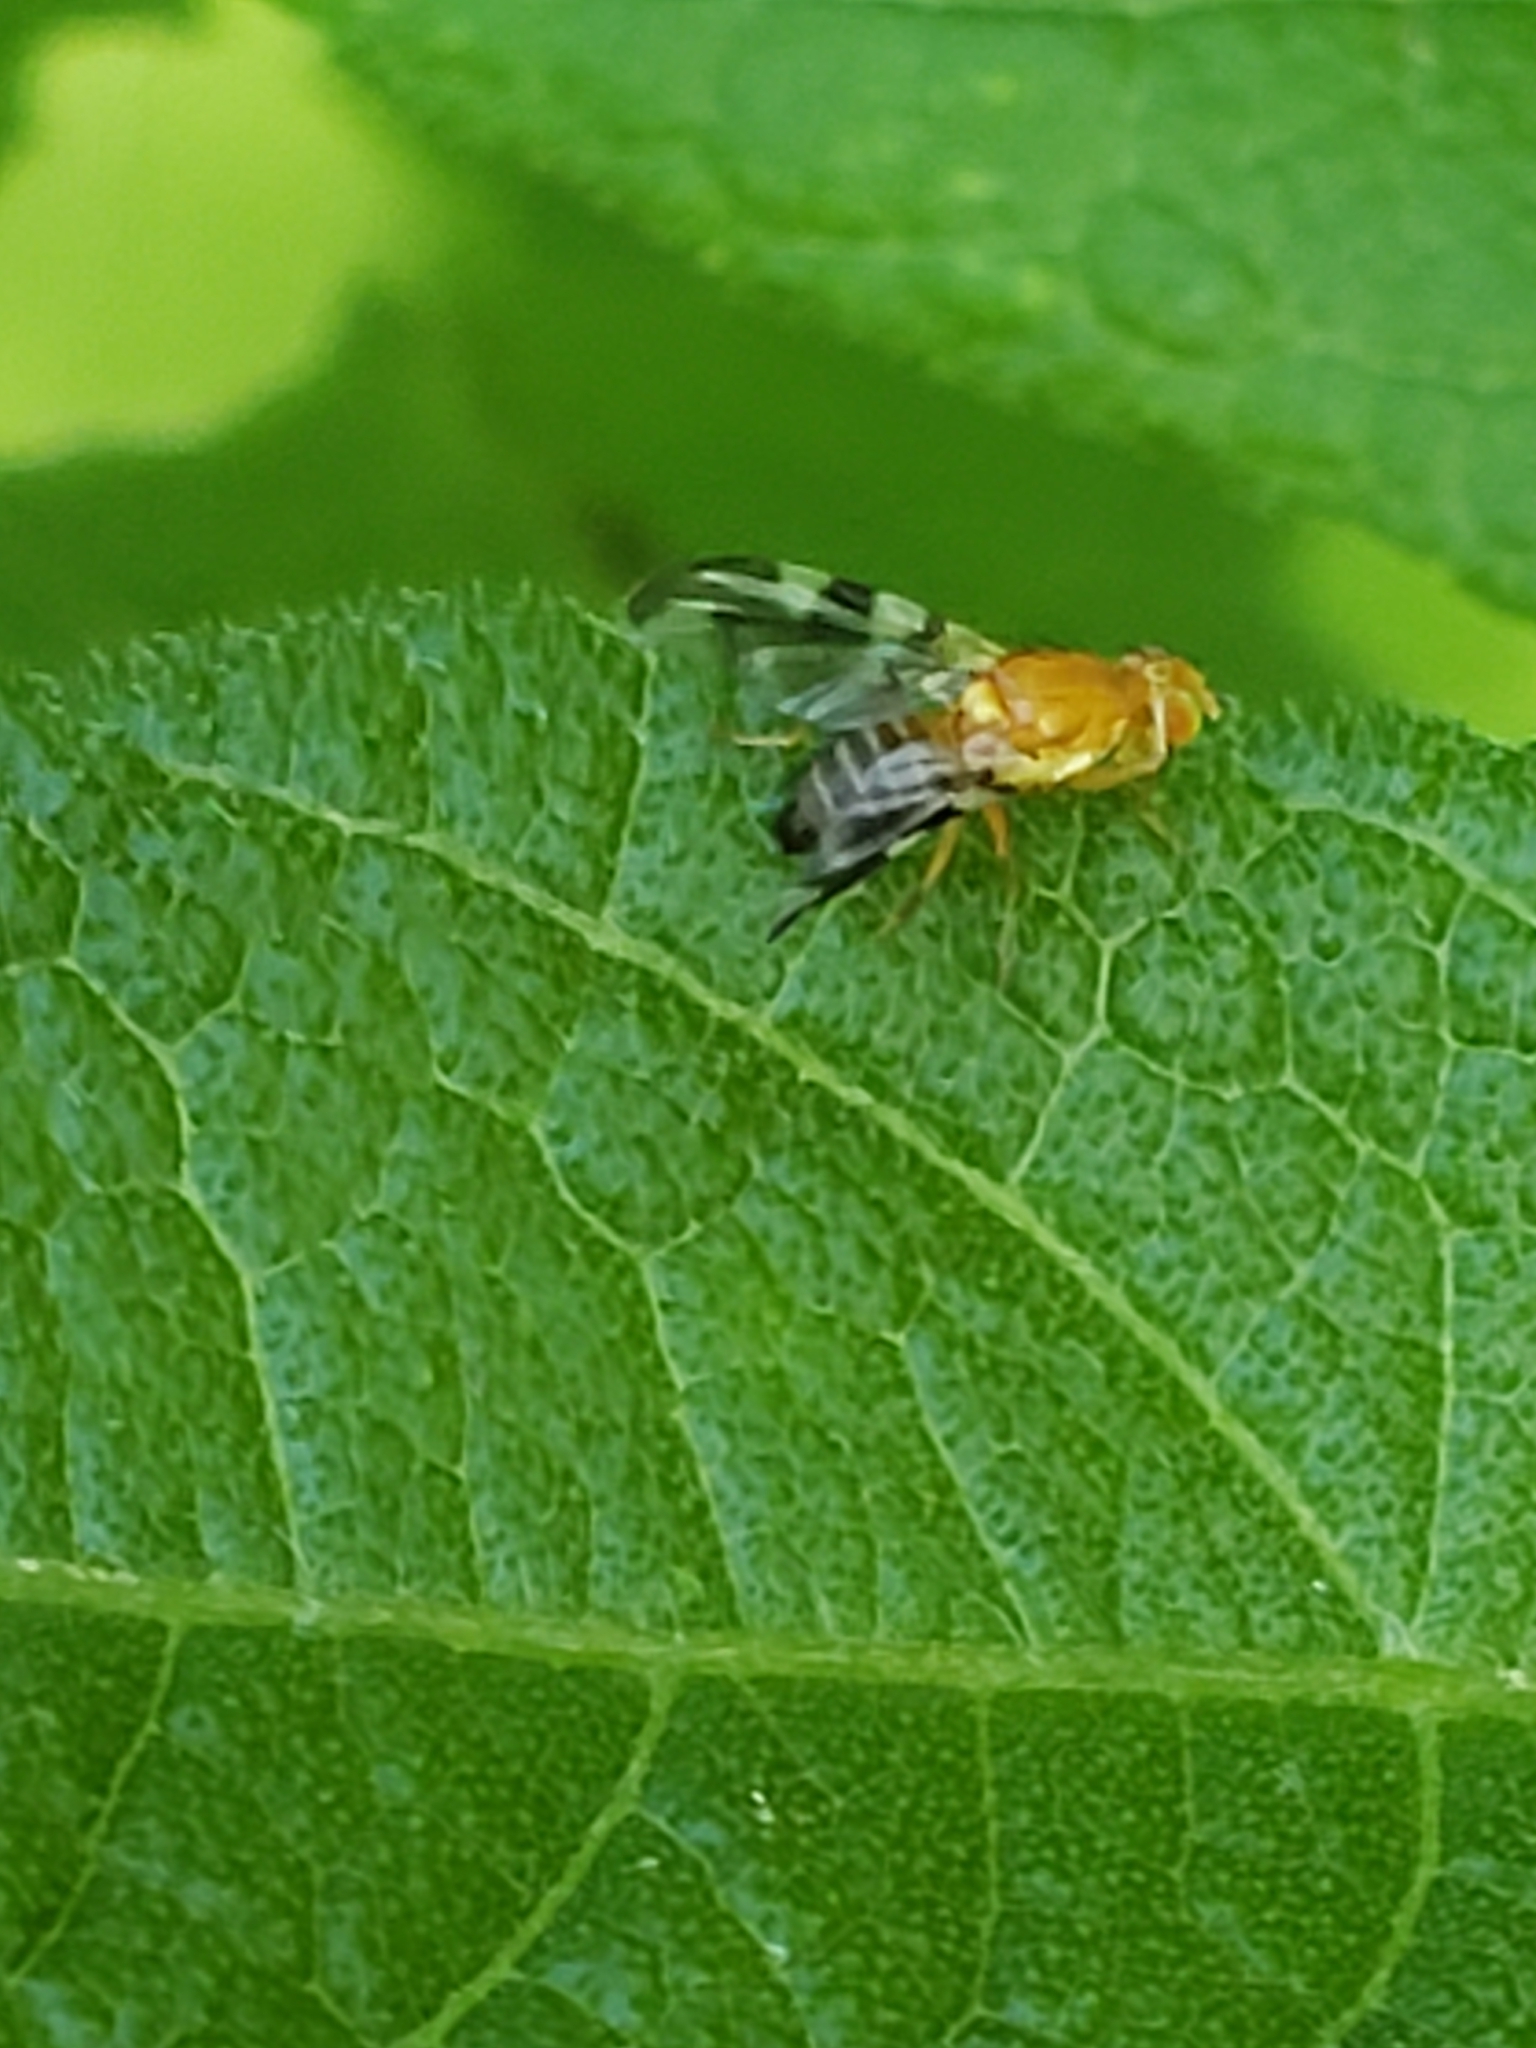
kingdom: Animalia
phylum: Arthropoda
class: Insecta
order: Diptera
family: Tephritidae
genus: Rhagoletis
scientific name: Rhagoletis suavis
